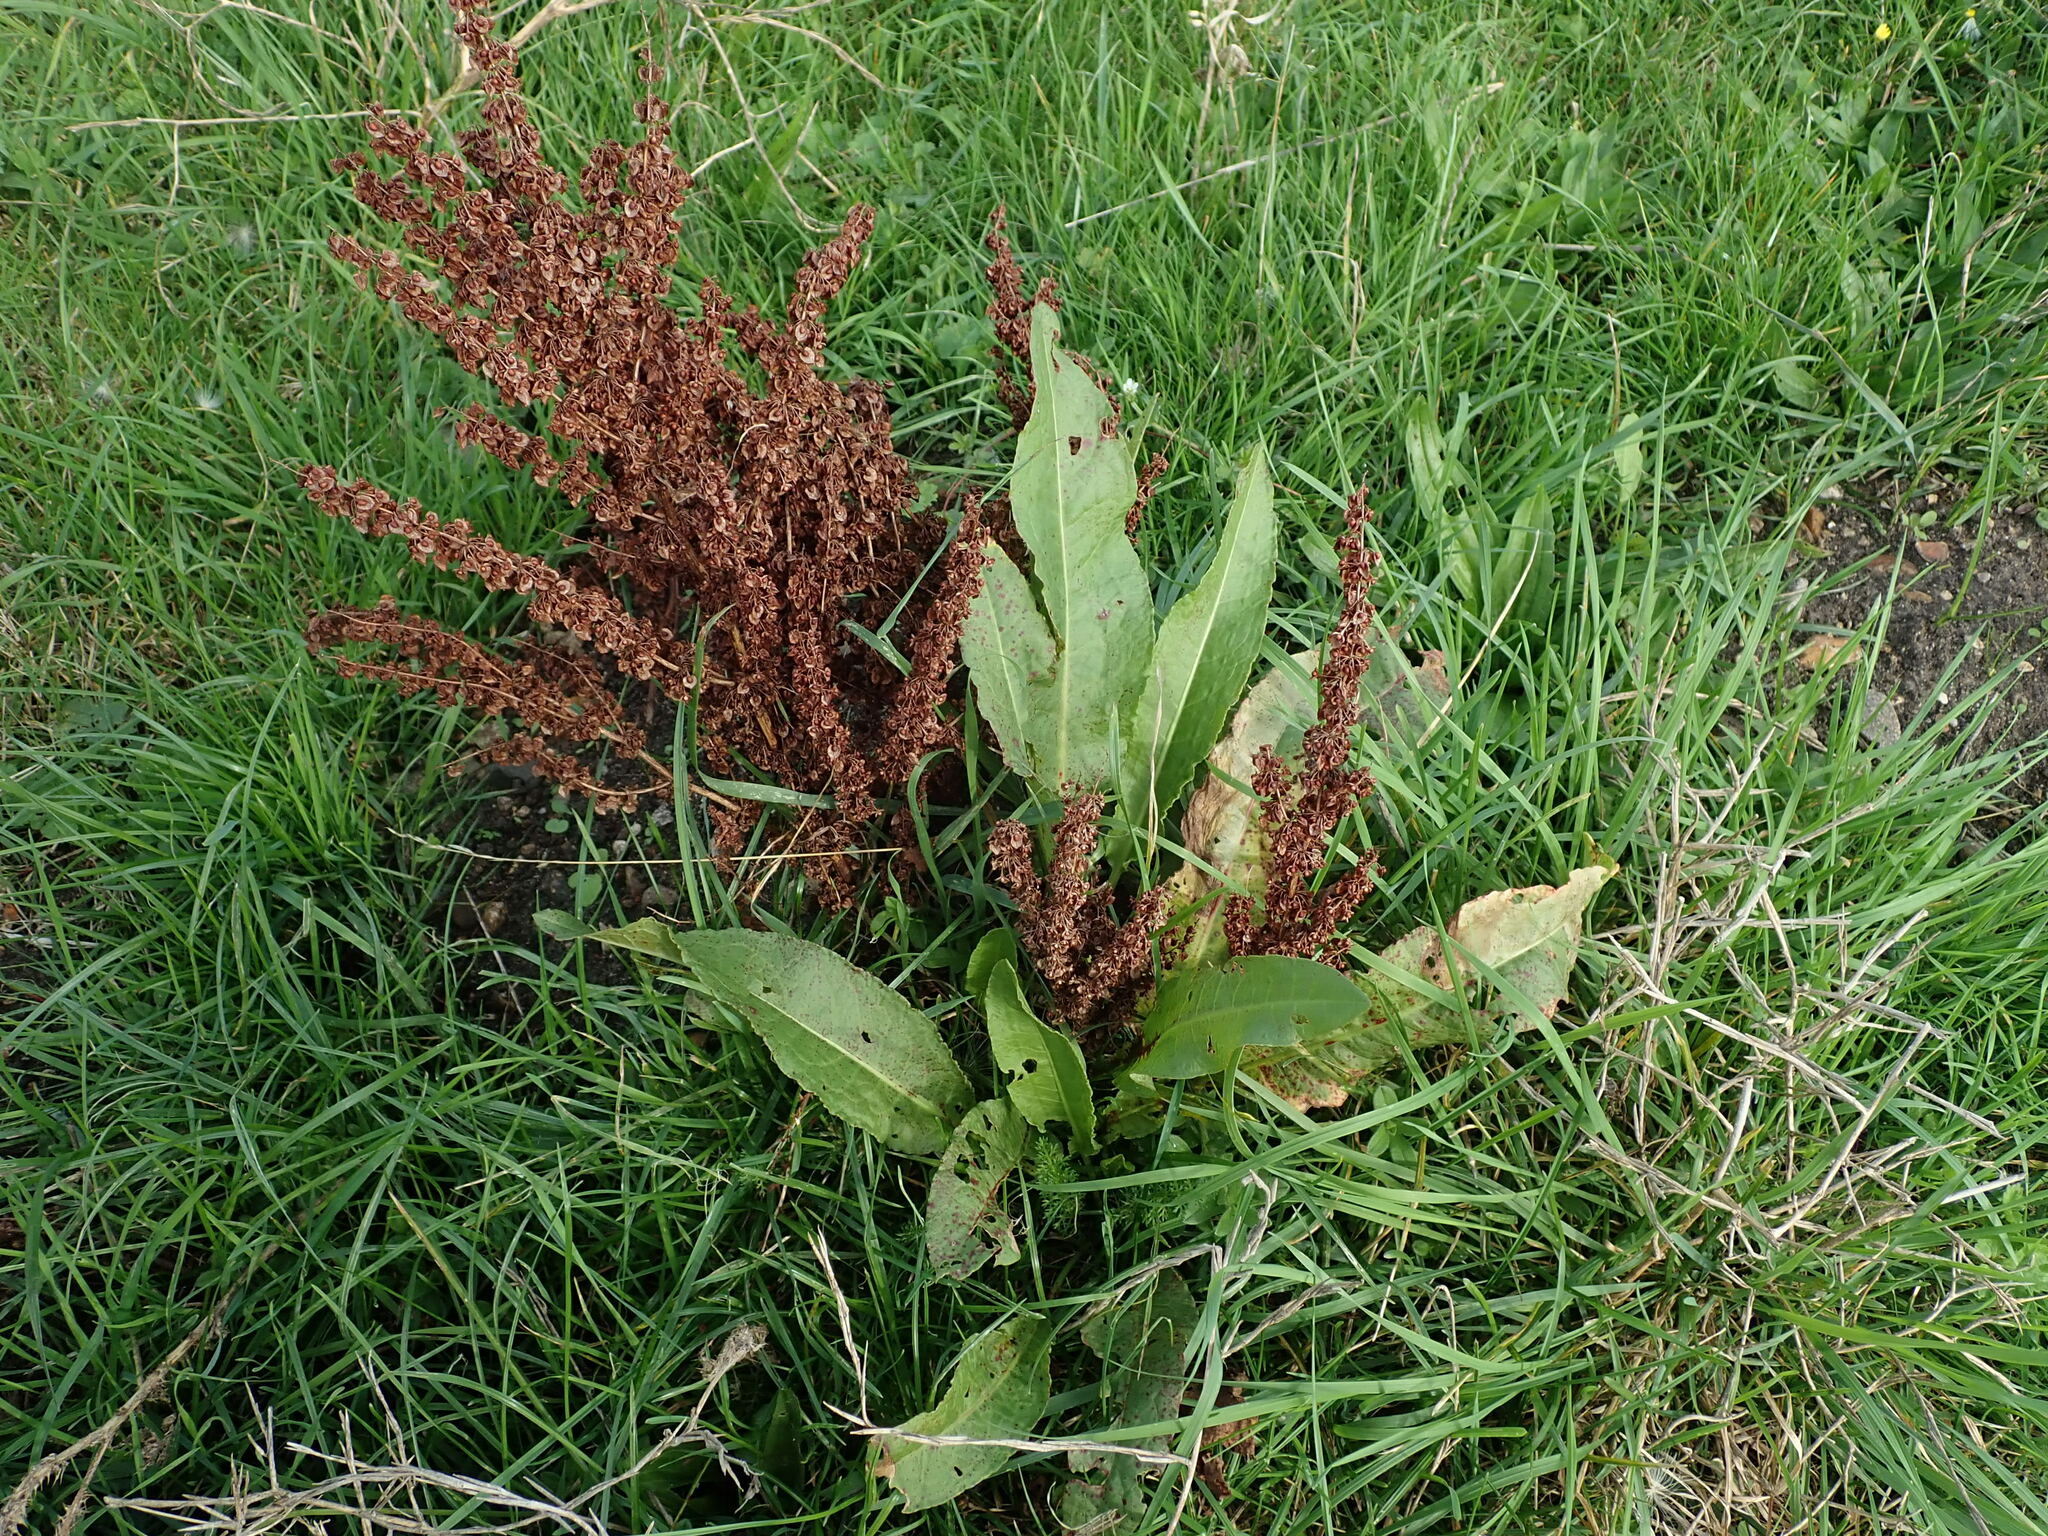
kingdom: Plantae
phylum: Tracheophyta
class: Magnoliopsida
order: Caryophyllales
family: Polygonaceae
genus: Rumex
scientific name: Rumex crispus
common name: Curled dock
